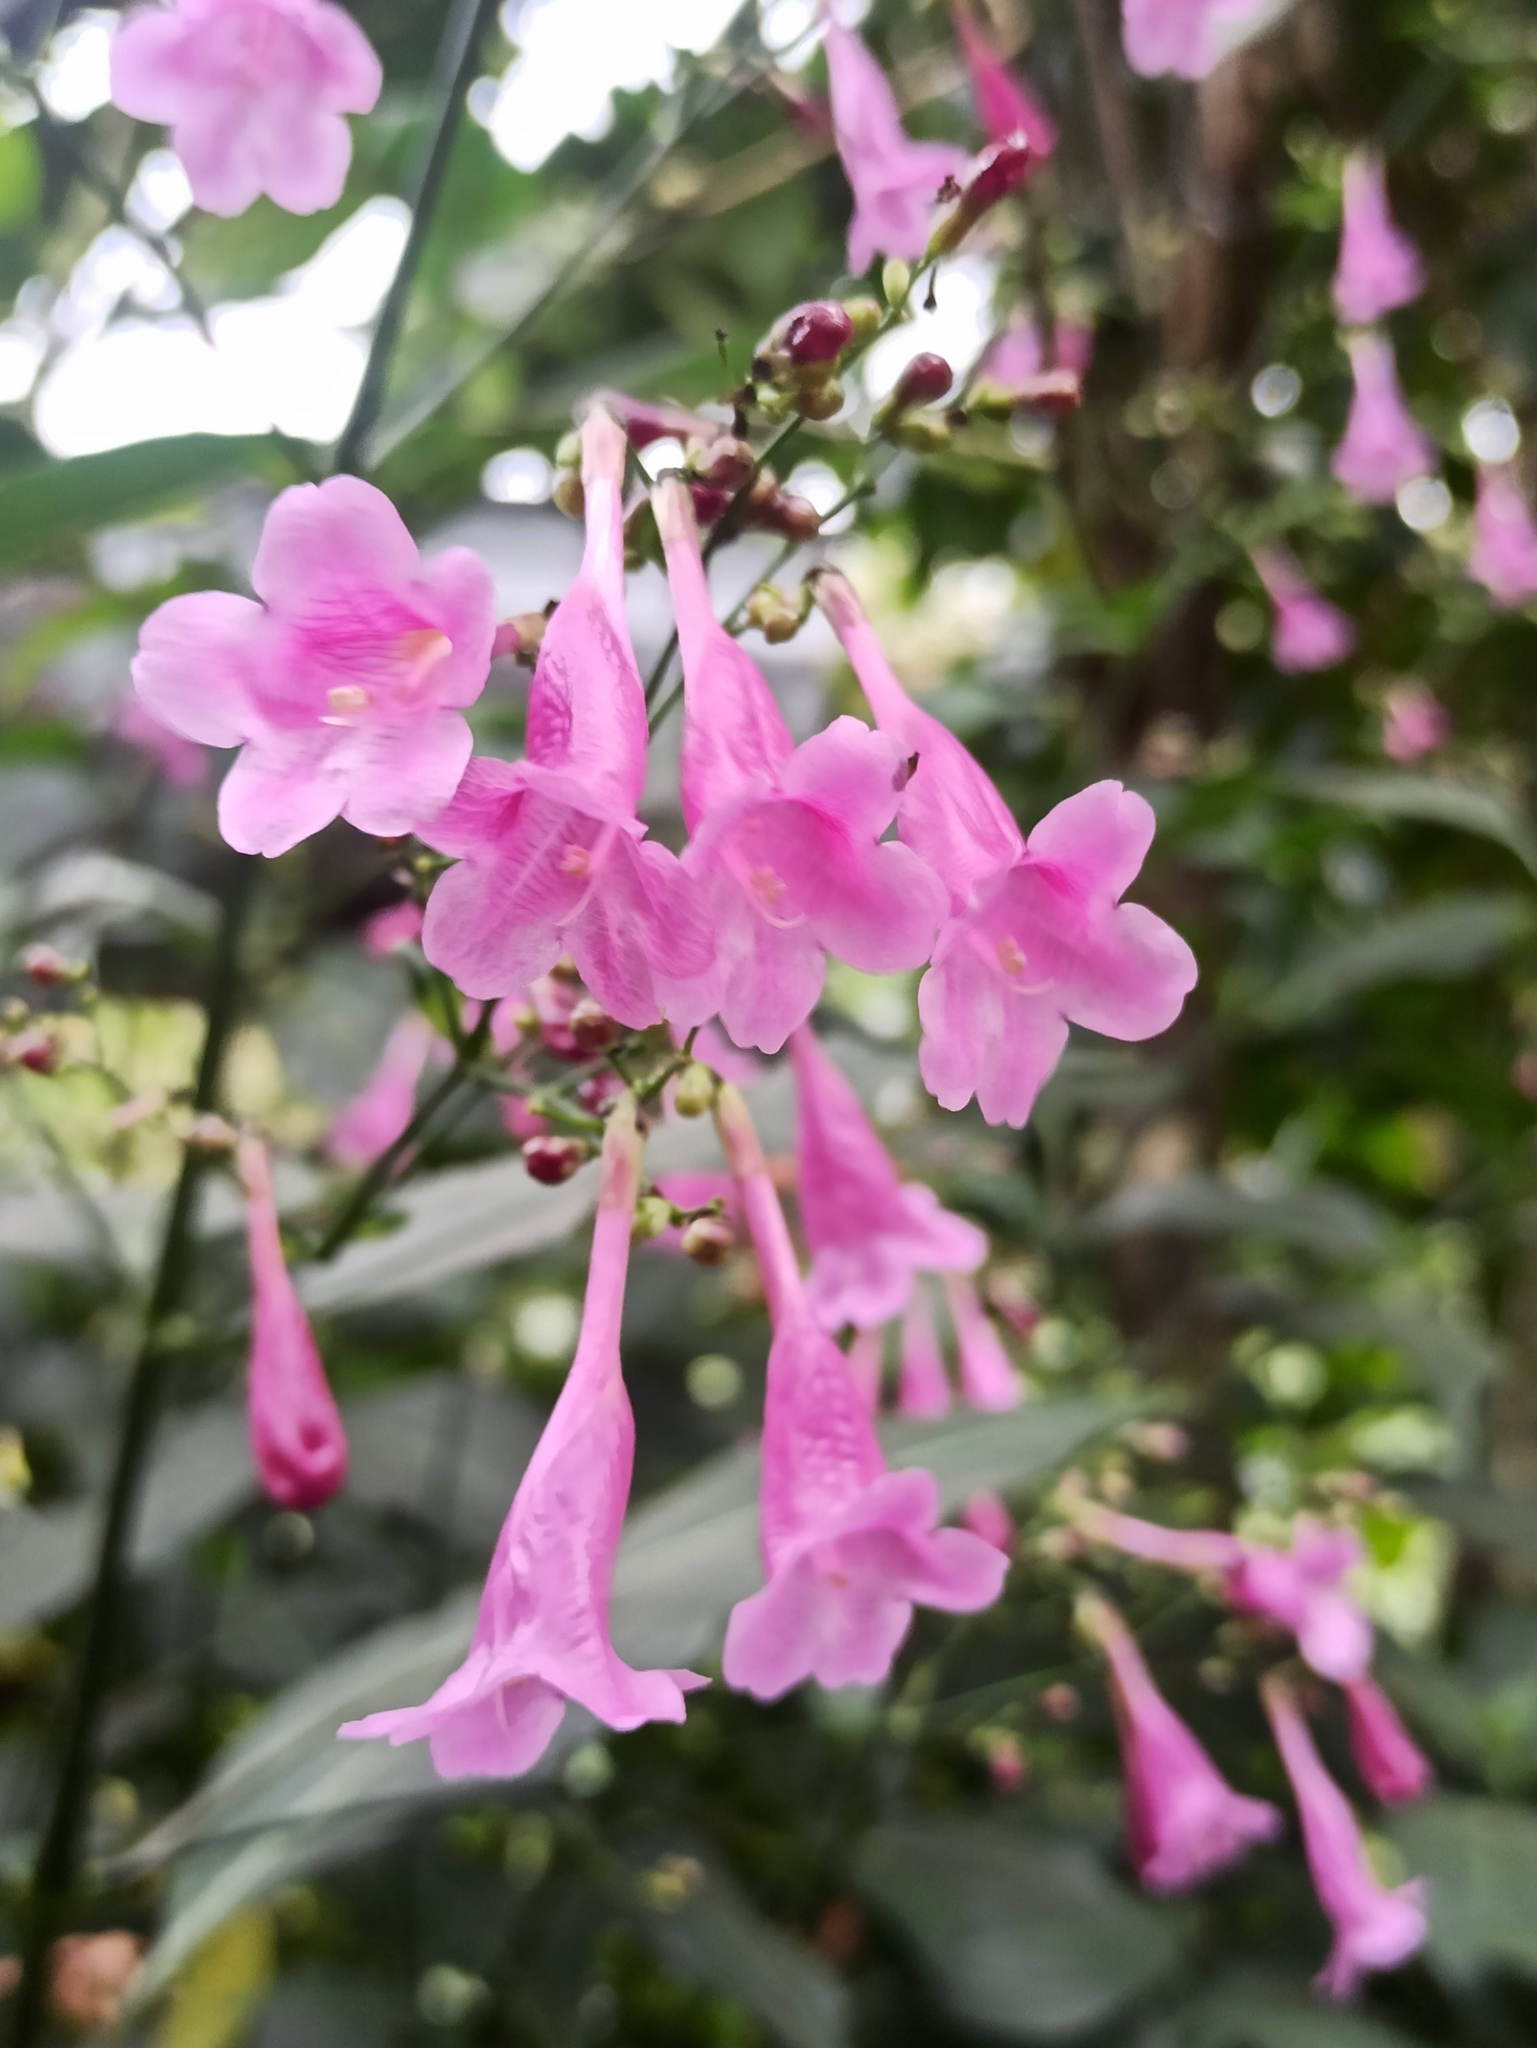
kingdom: Plantae
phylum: Tracheophyta
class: Magnoliopsida
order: Lamiales
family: Acanthaceae
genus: Strobilanthes
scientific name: Strobilanthes hamiltoniana
